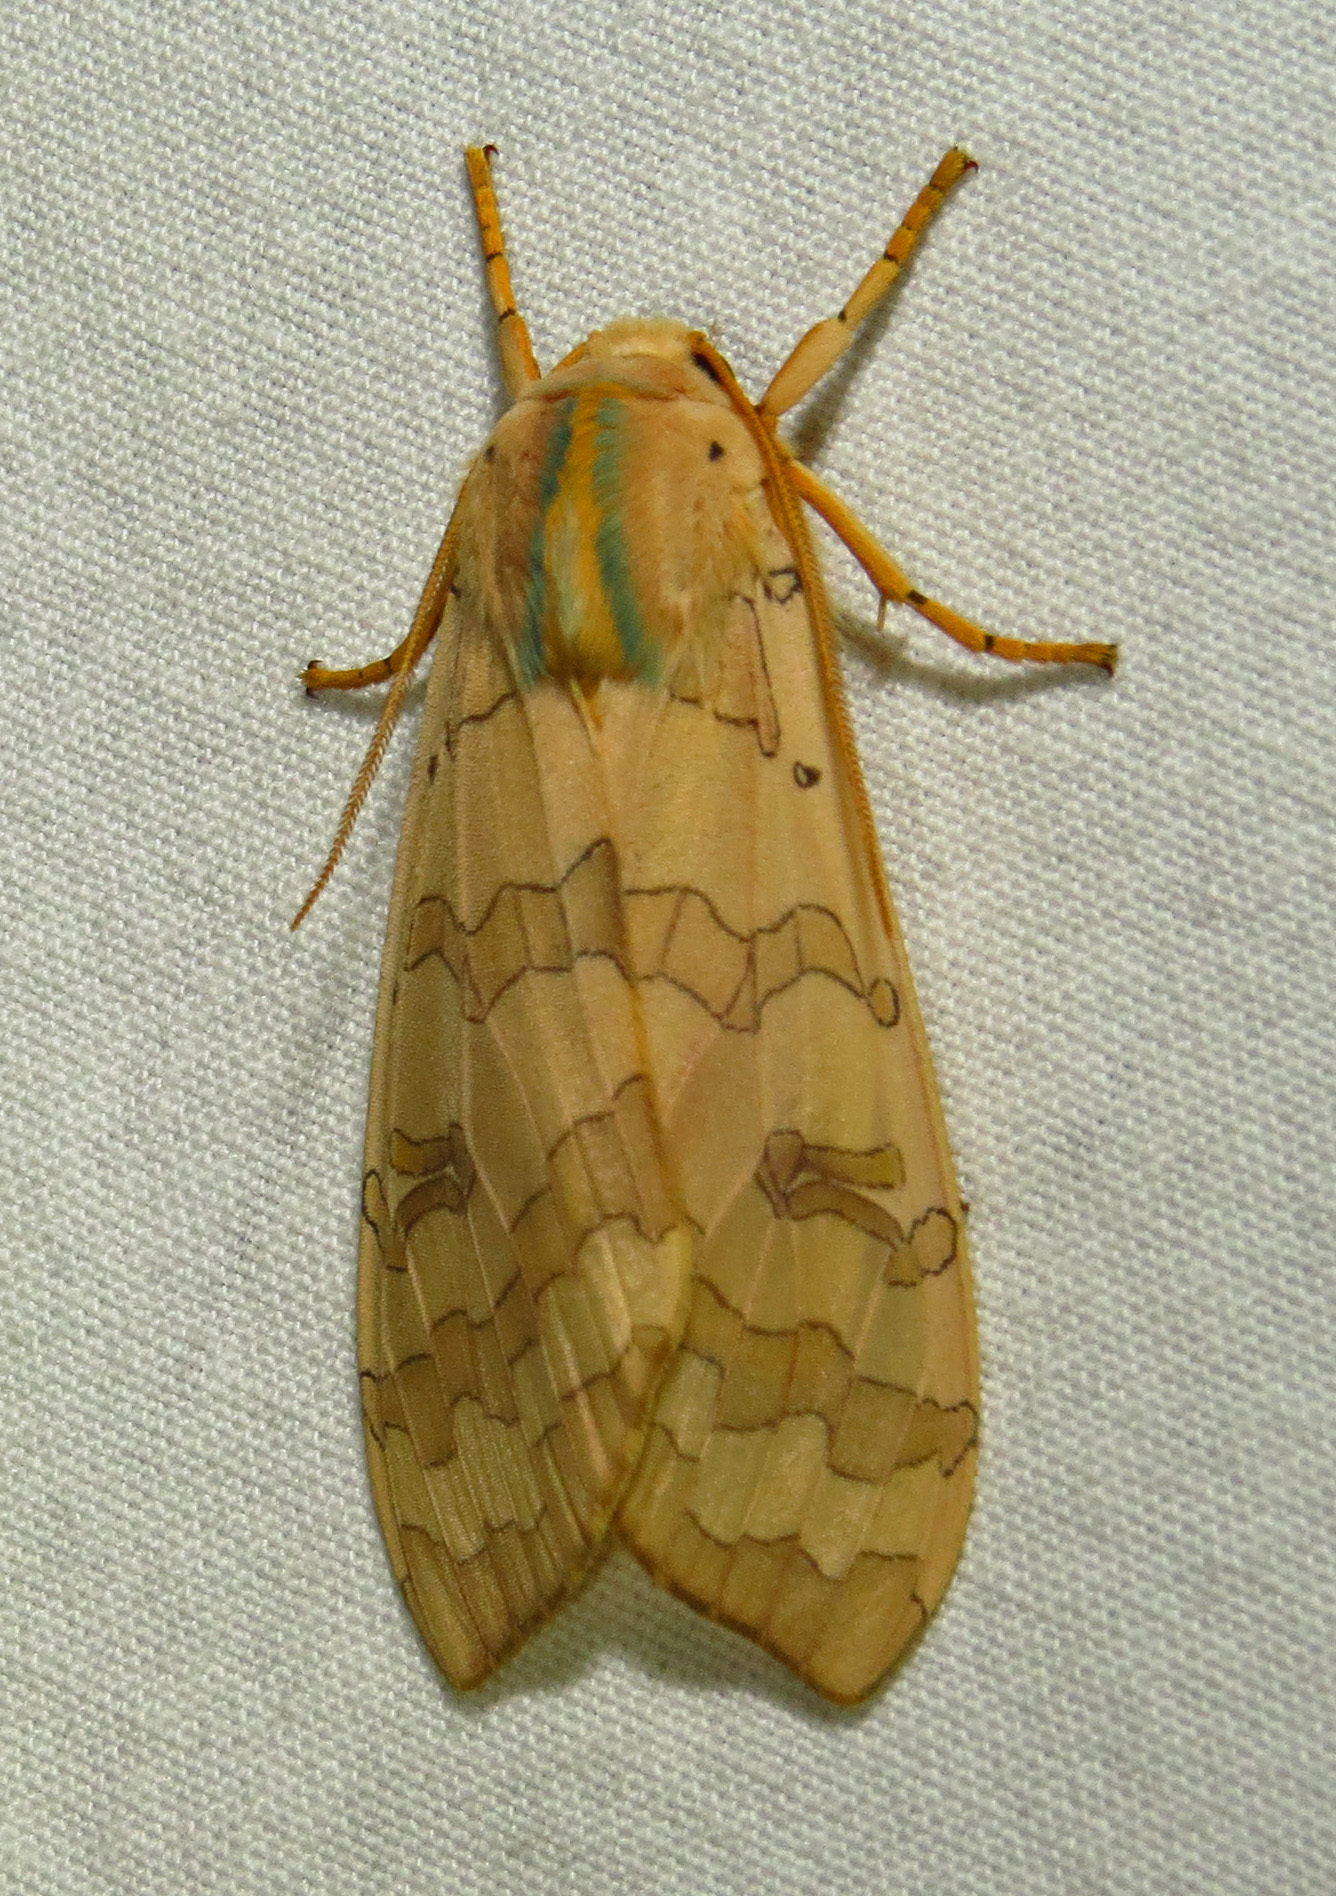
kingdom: Animalia
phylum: Arthropoda
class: Insecta
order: Lepidoptera
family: Erebidae
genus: Halysidota
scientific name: Halysidota
